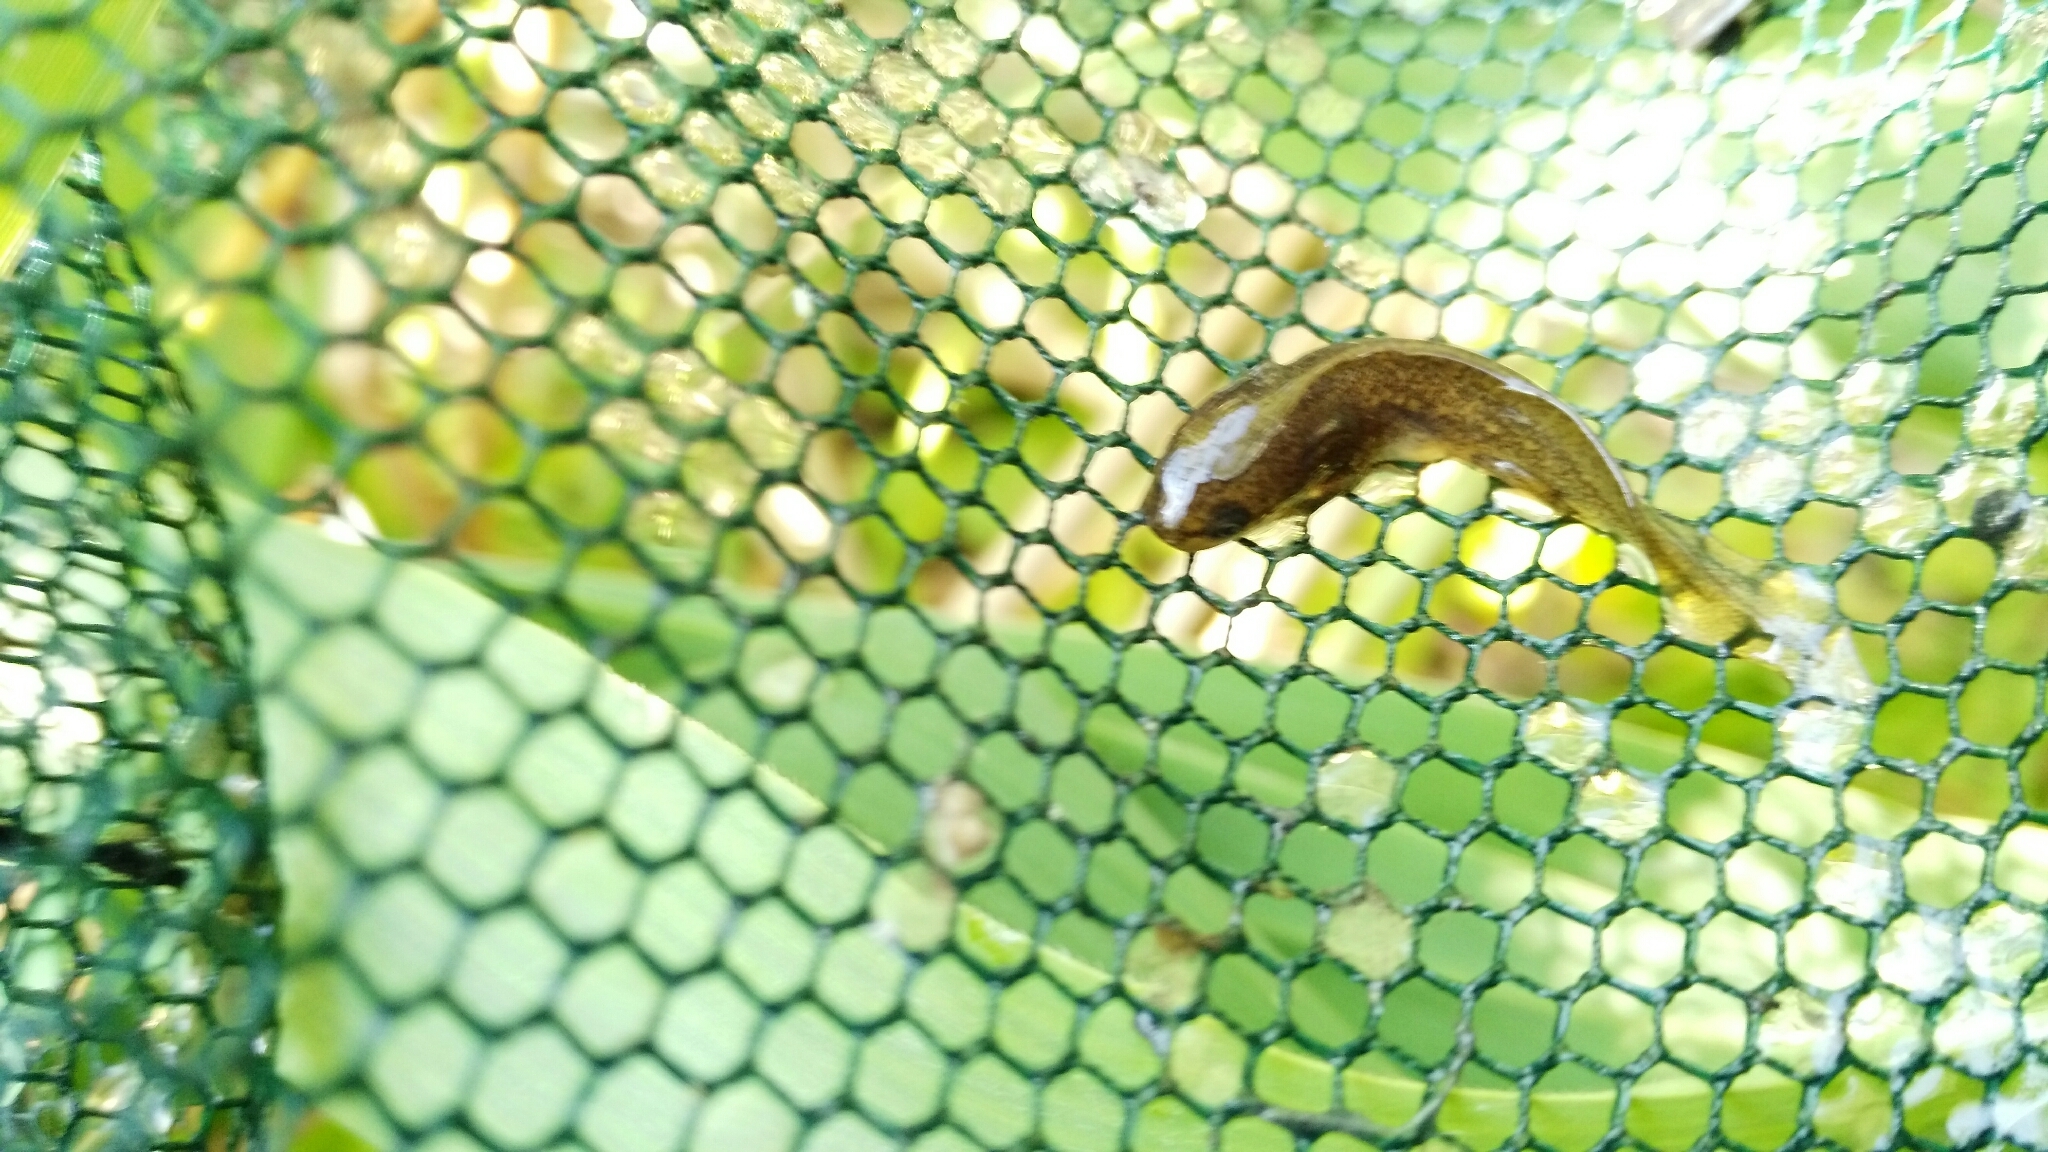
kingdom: Animalia
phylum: Chordata
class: Amphibia
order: Caudata
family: Salamandridae
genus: Lissotriton
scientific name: Lissotriton vulgaris
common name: Smooth newt
